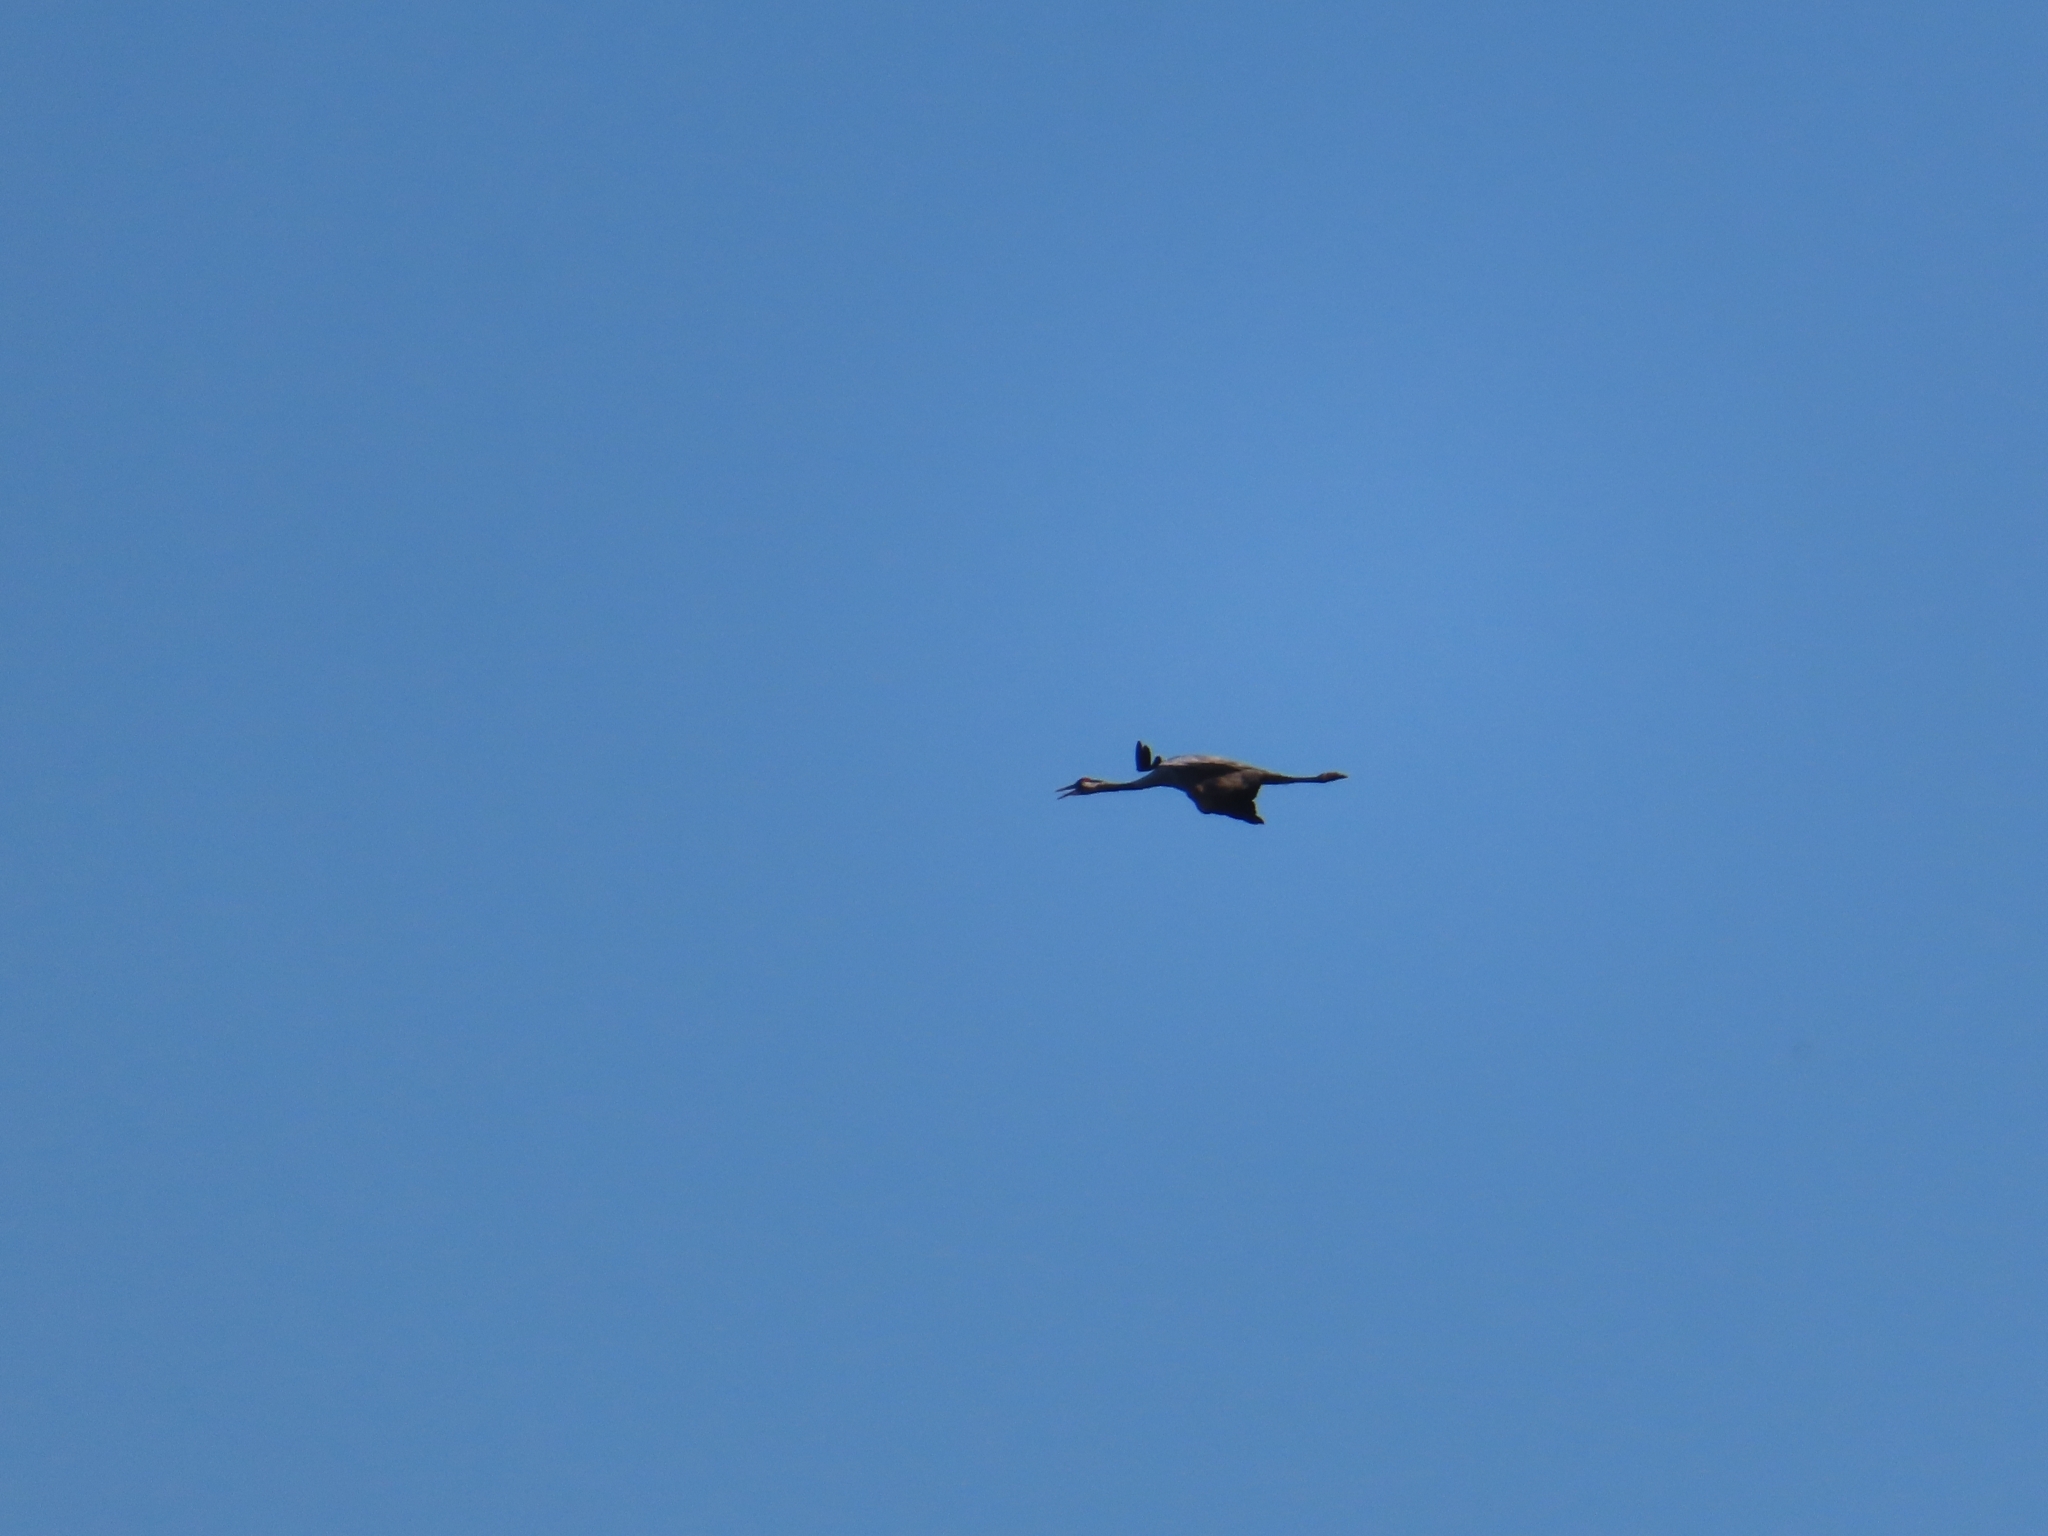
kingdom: Animalia
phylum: Chordata
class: Aves
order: Gruiformes
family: Gruidae
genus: Grus
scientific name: Grus grus
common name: Common crane
